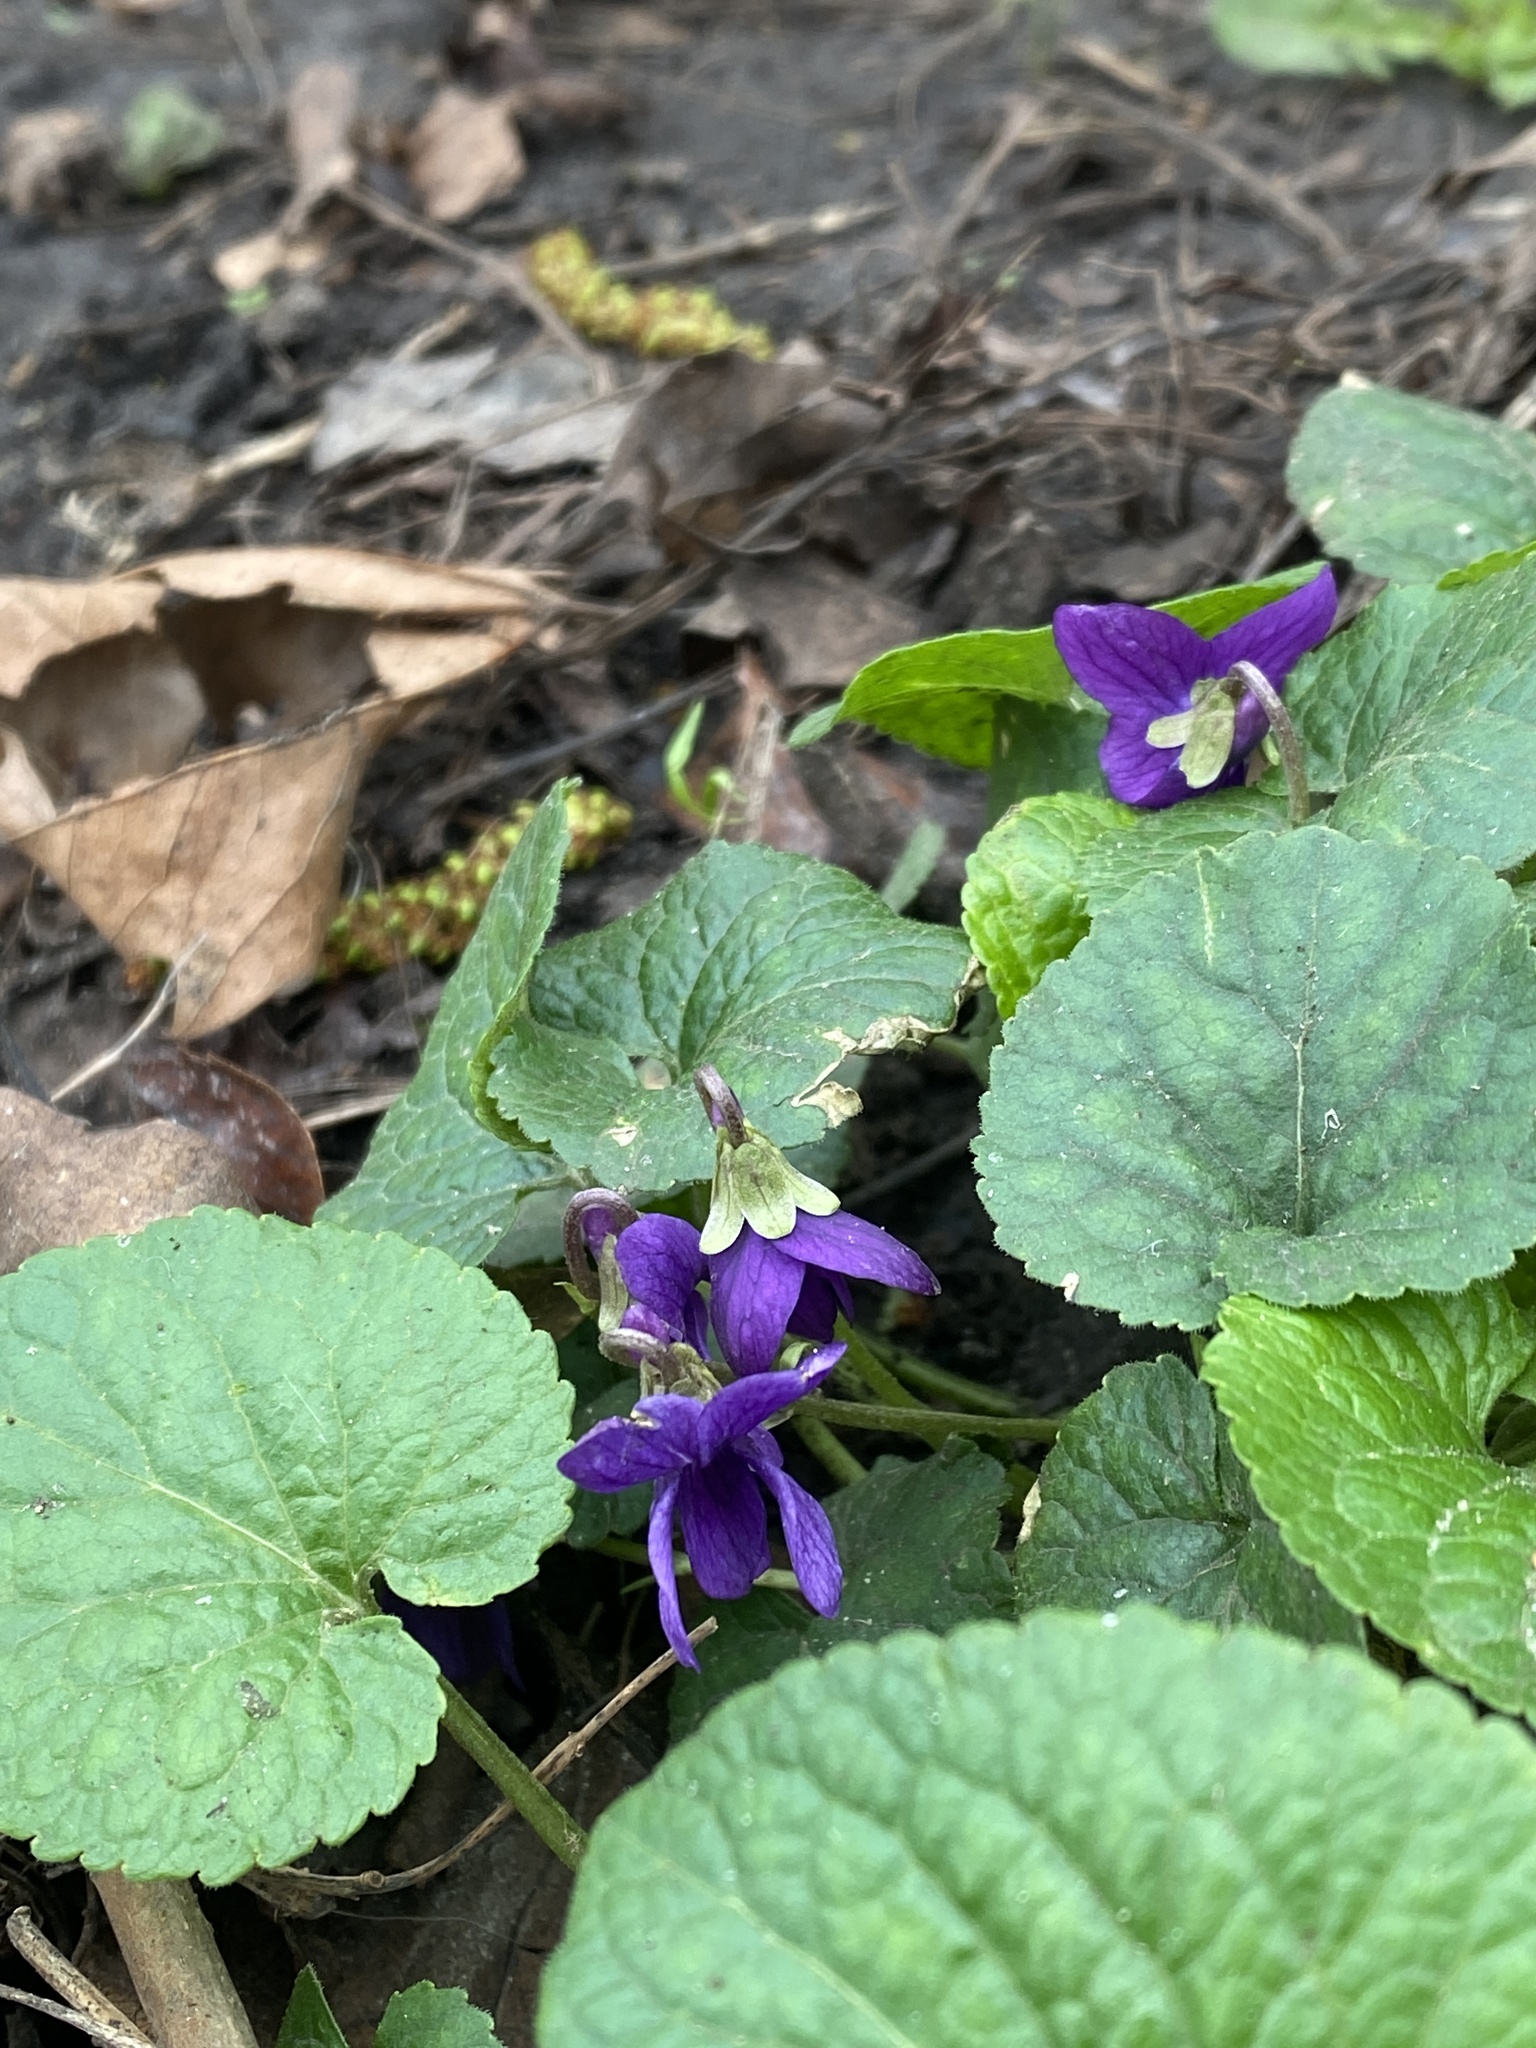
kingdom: Plantae
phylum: Tracheophyta
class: Magnoliopsida
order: Malpighiales
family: Violaceae
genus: Viola
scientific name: Viola odorata
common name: Sweet violet
